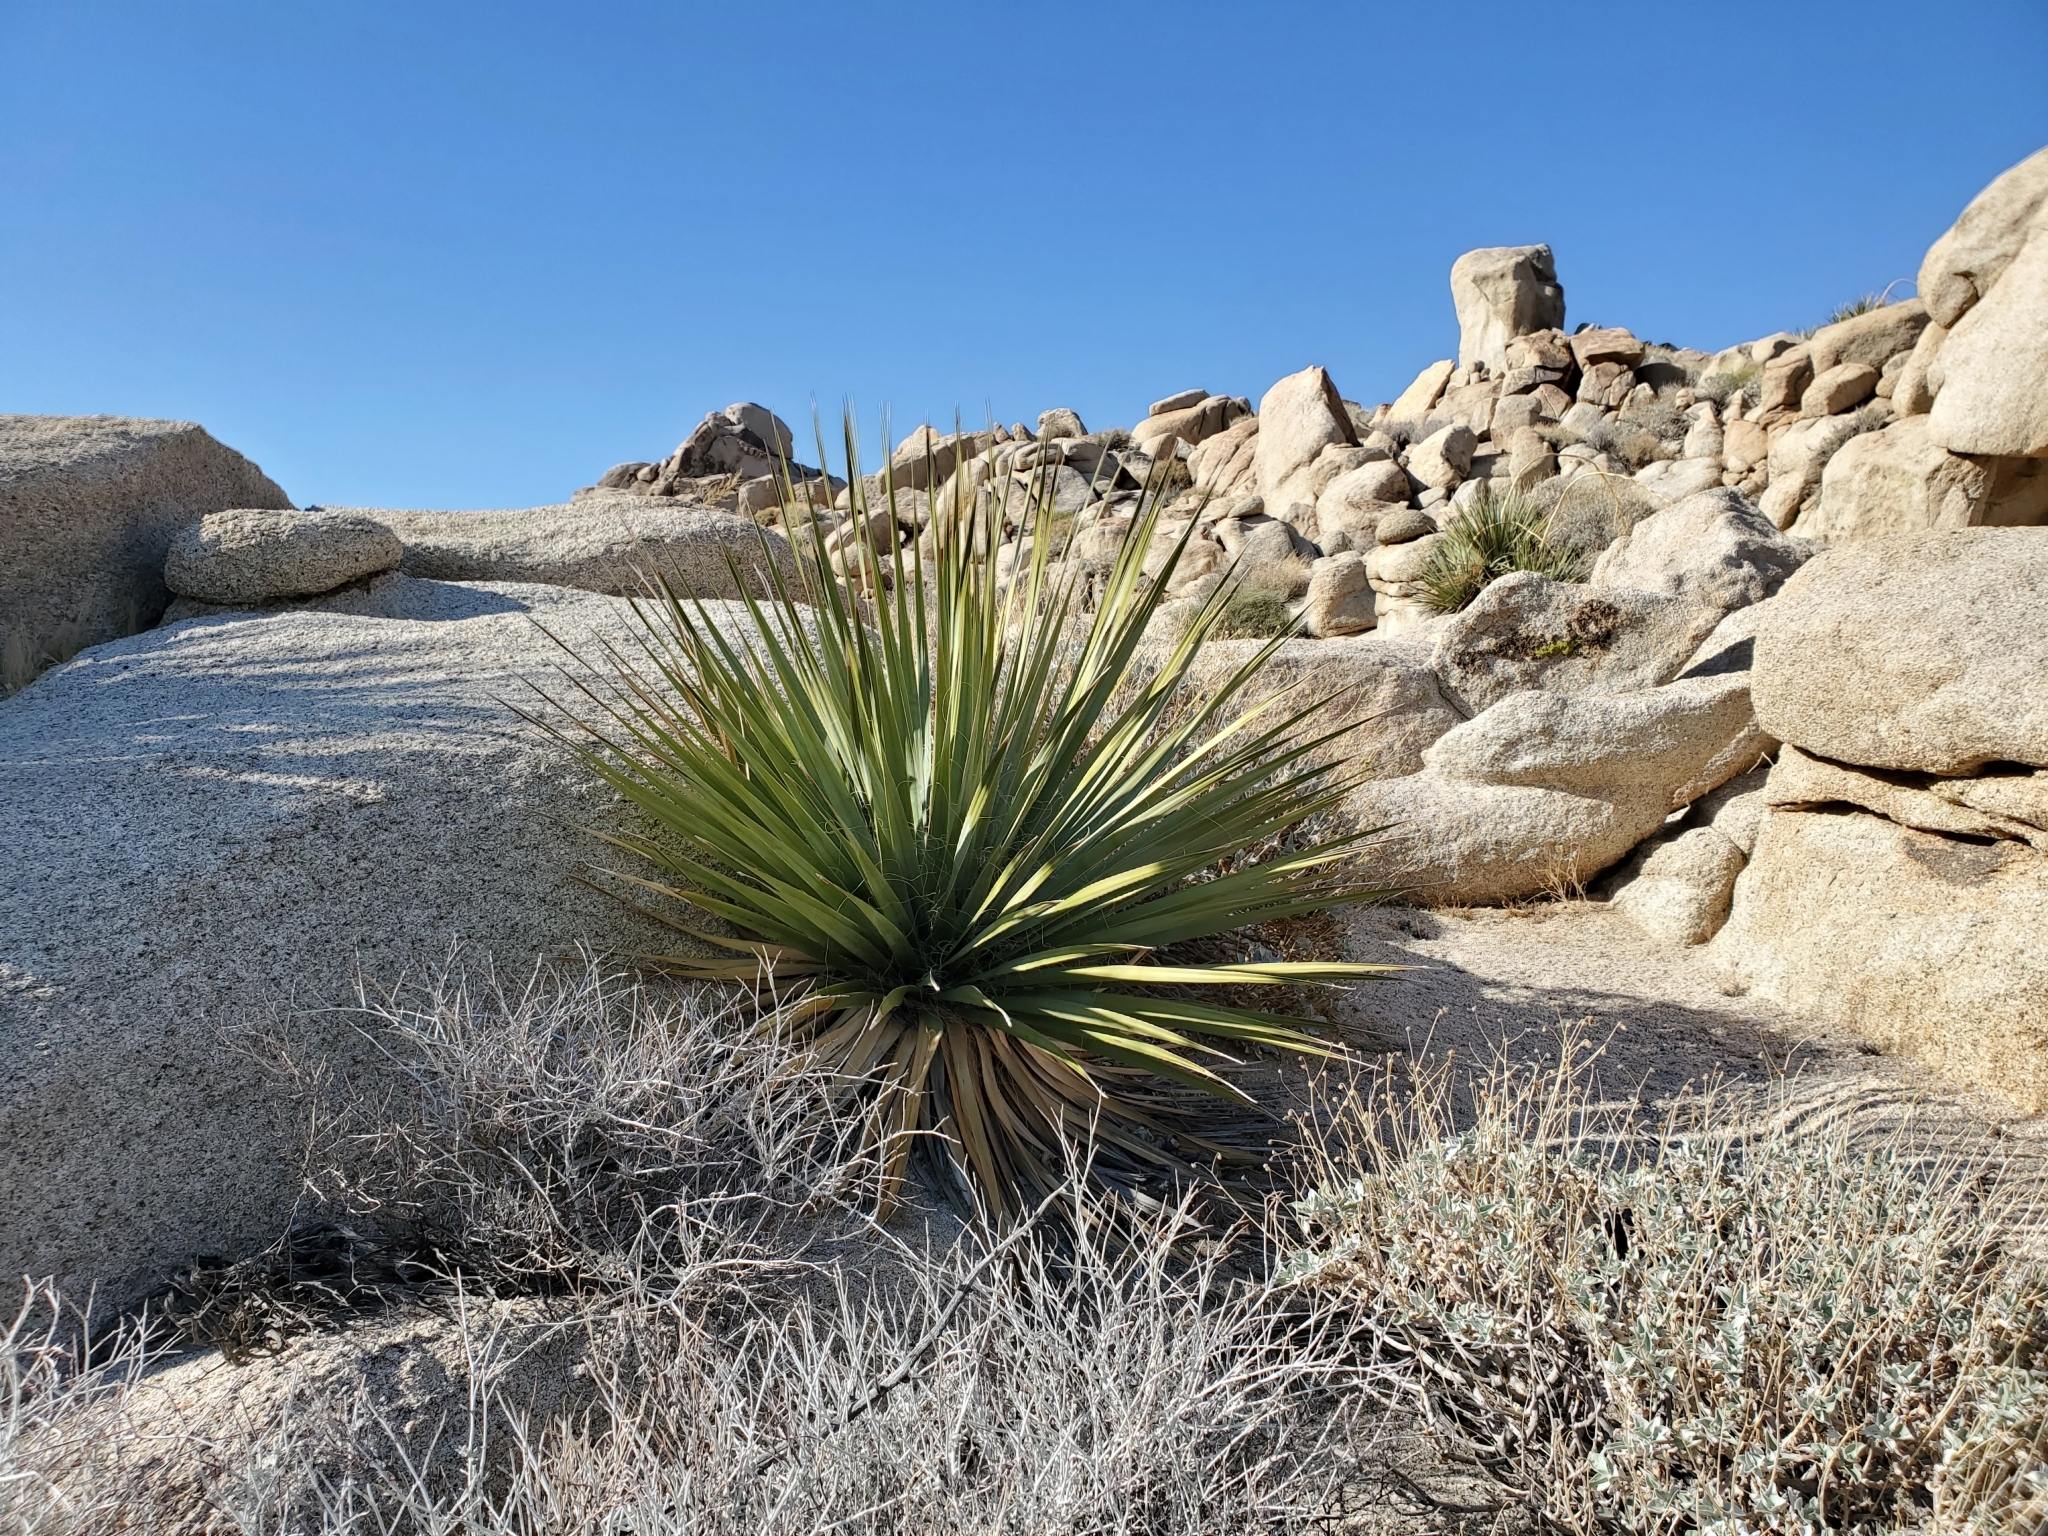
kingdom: Plantae
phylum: Tracheophyta
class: Liliopsida
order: Asparagales
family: Asparagaceae
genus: Nolina
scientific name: Nolina bigelovii
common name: Bigelow bear-grass
